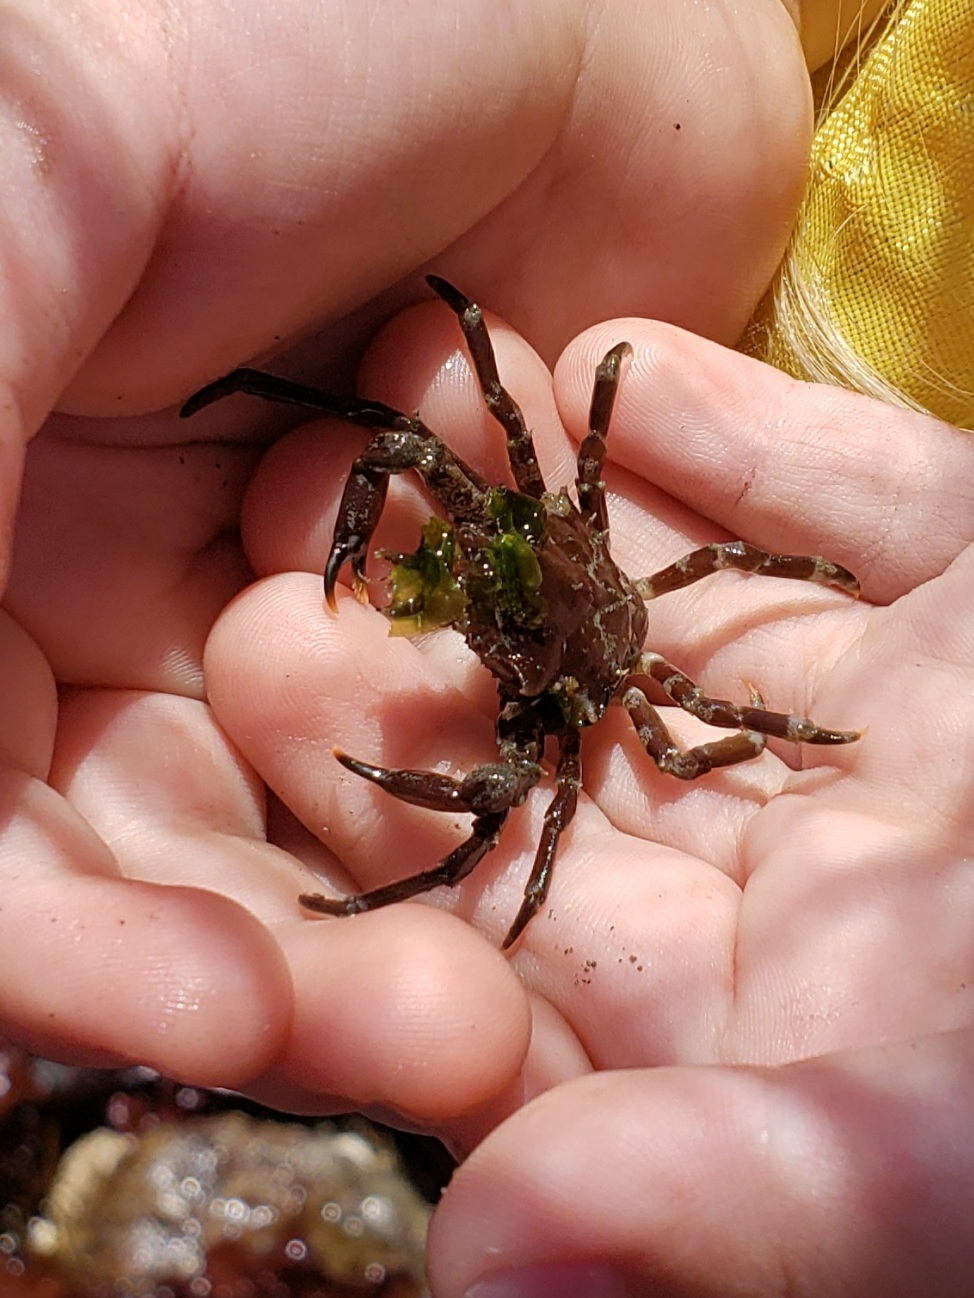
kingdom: Animalia
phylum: Arthropoda
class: Malacostraca
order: Decapoda
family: Epialtidae
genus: Pugettia
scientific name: Pugettia gracilis
